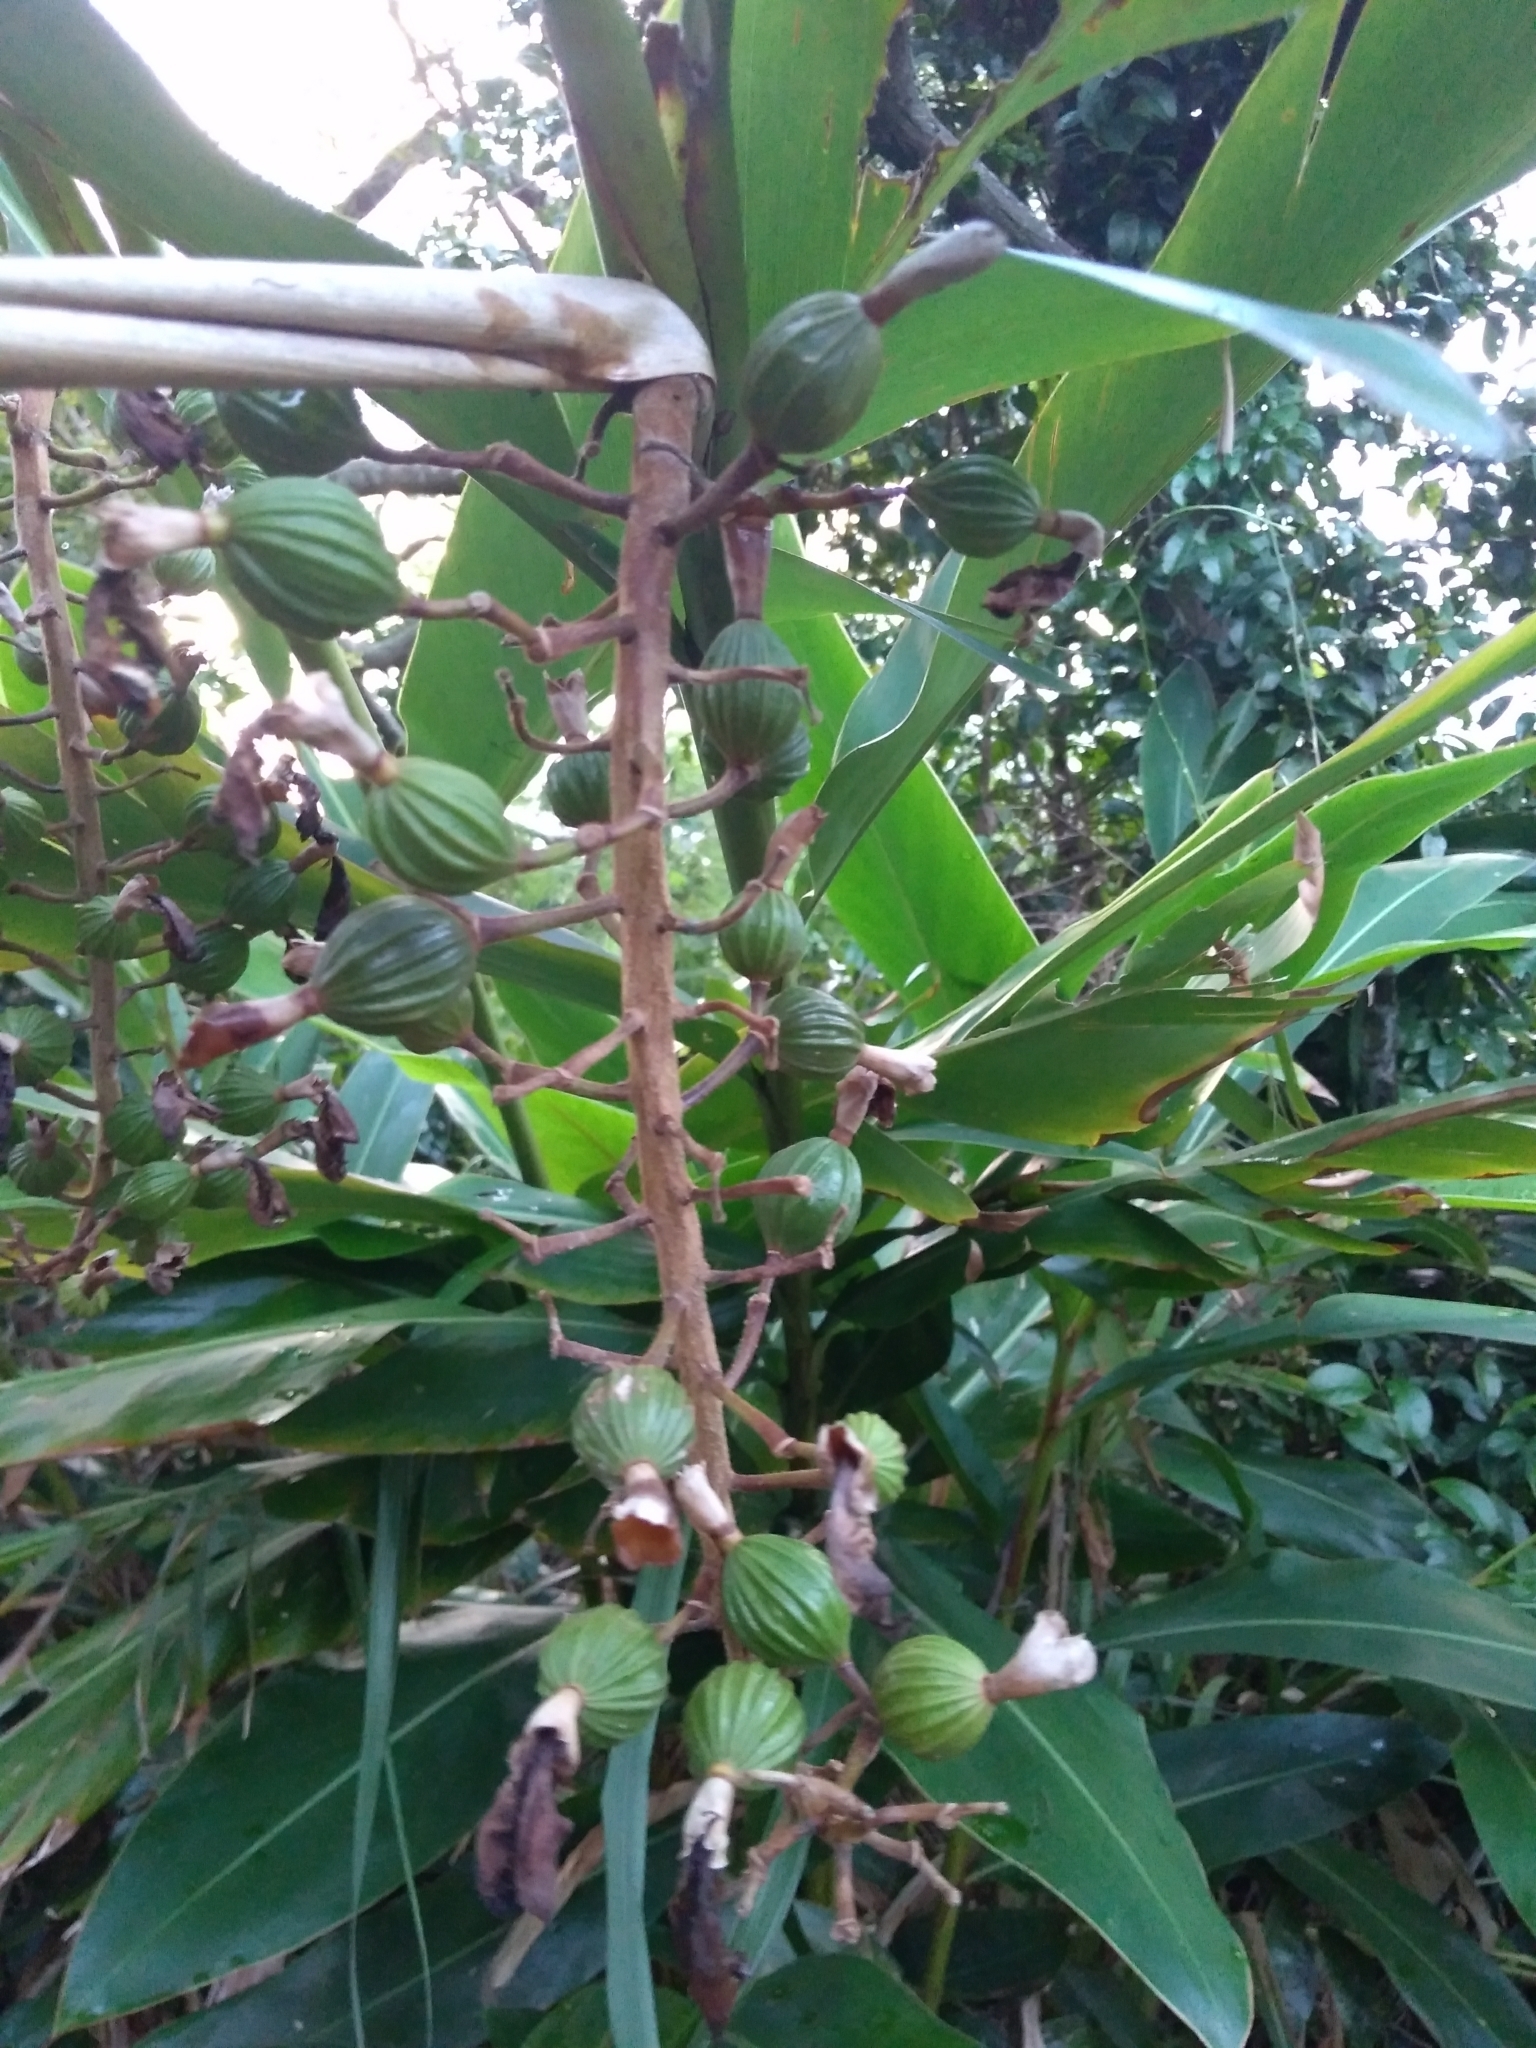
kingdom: Plantae
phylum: Tracheophyta
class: Liliopsida
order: Zingiberales
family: Zingiberaceae
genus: Alpinia
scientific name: Alpinia zerumbet
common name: Shellplant
